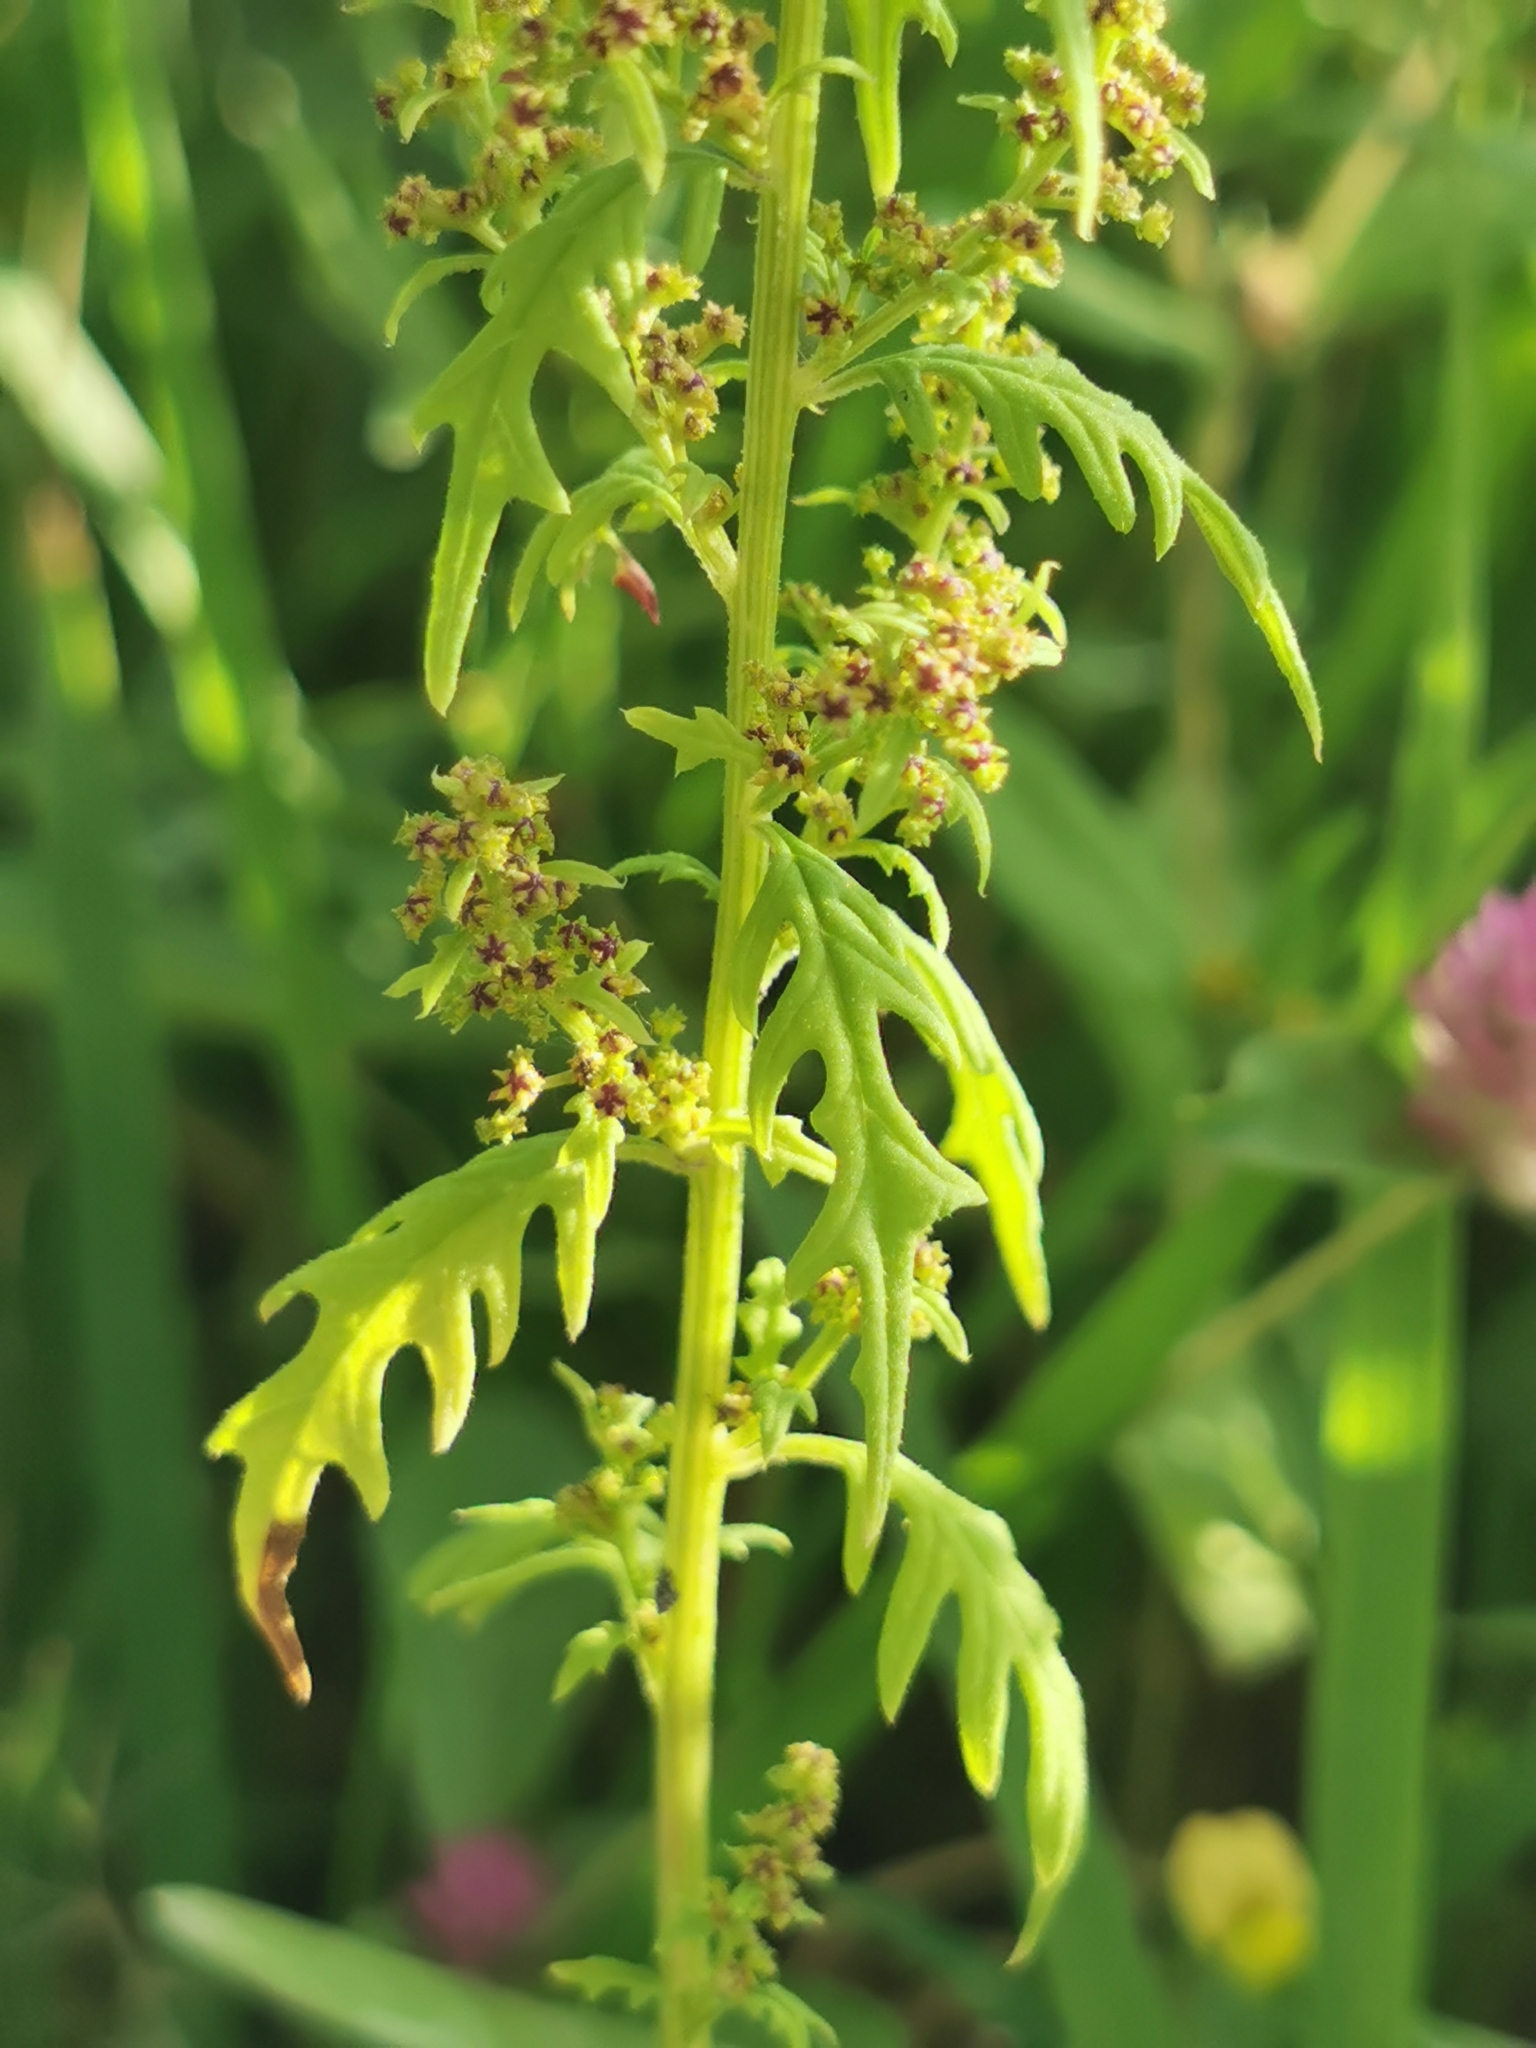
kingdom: Plantae
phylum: Tracheophyta
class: Magnoliopsida
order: Caryophyllales
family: Amaranthaceae
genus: Dysphania
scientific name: Dysphania incisa
